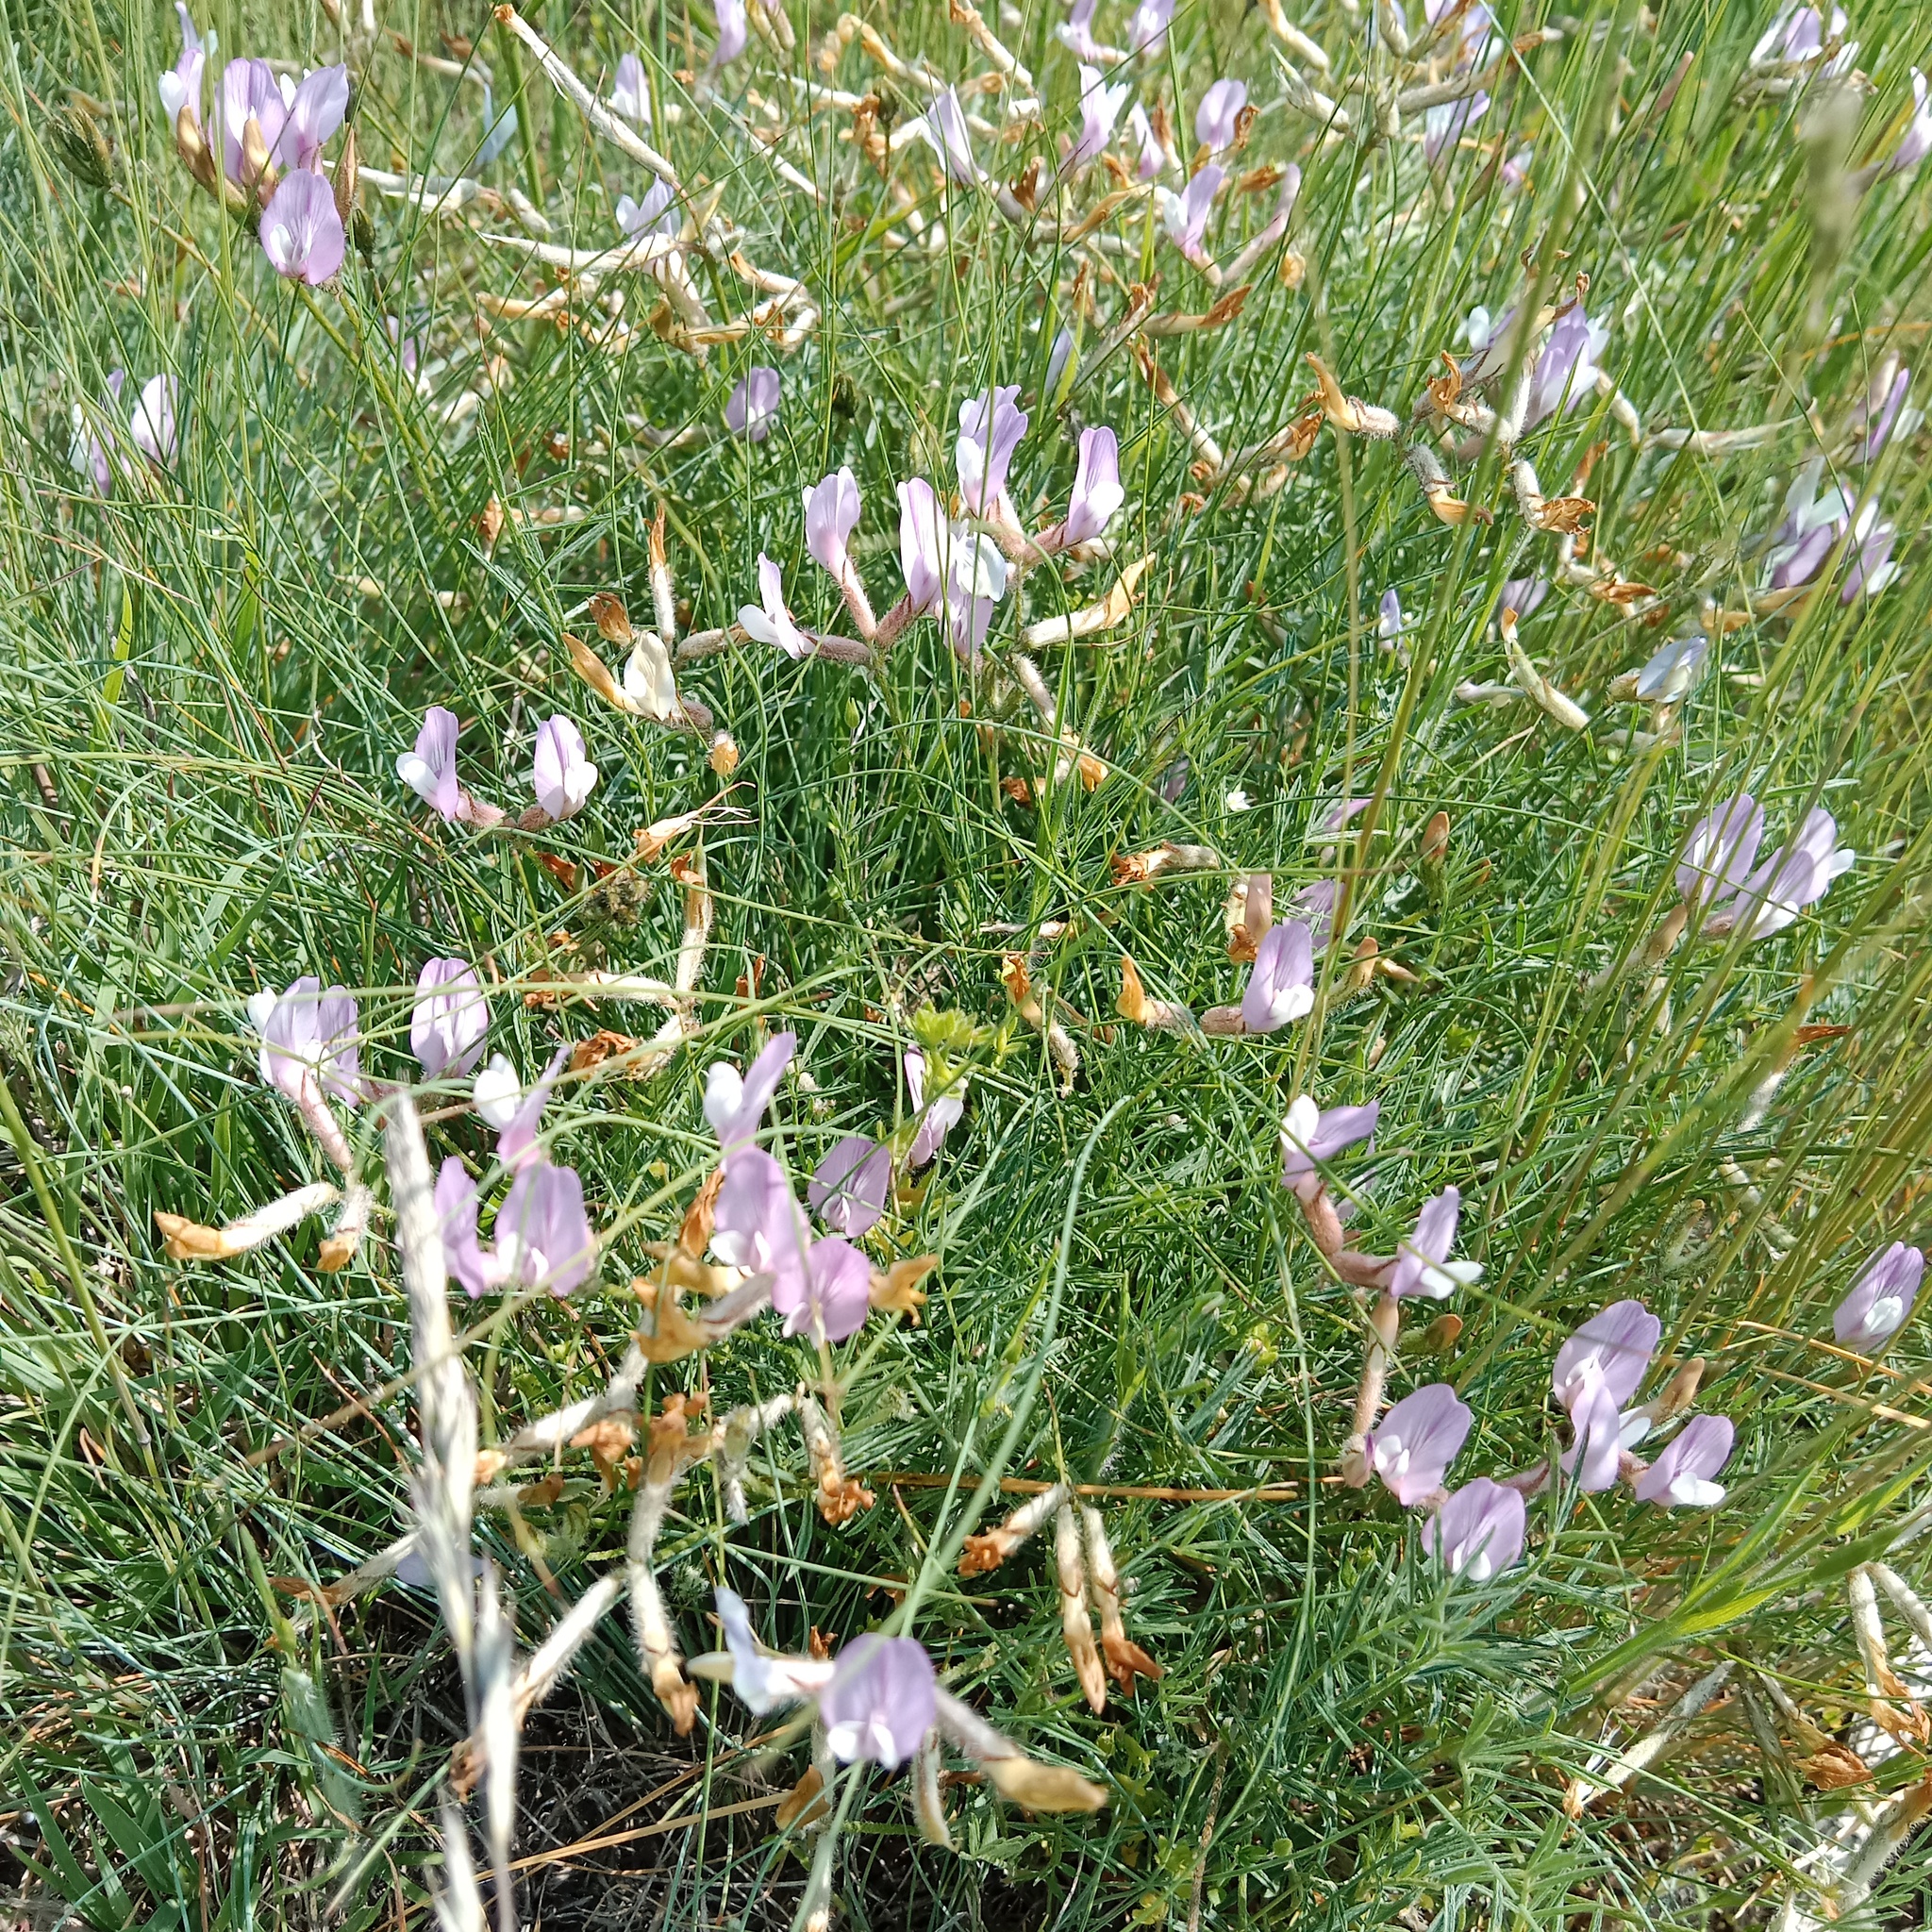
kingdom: Plantae
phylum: Tracheophyta
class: Magnoliopsida
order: Fabales
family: Fabaceae
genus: Astragalus
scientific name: Astragalus ucrainicus
